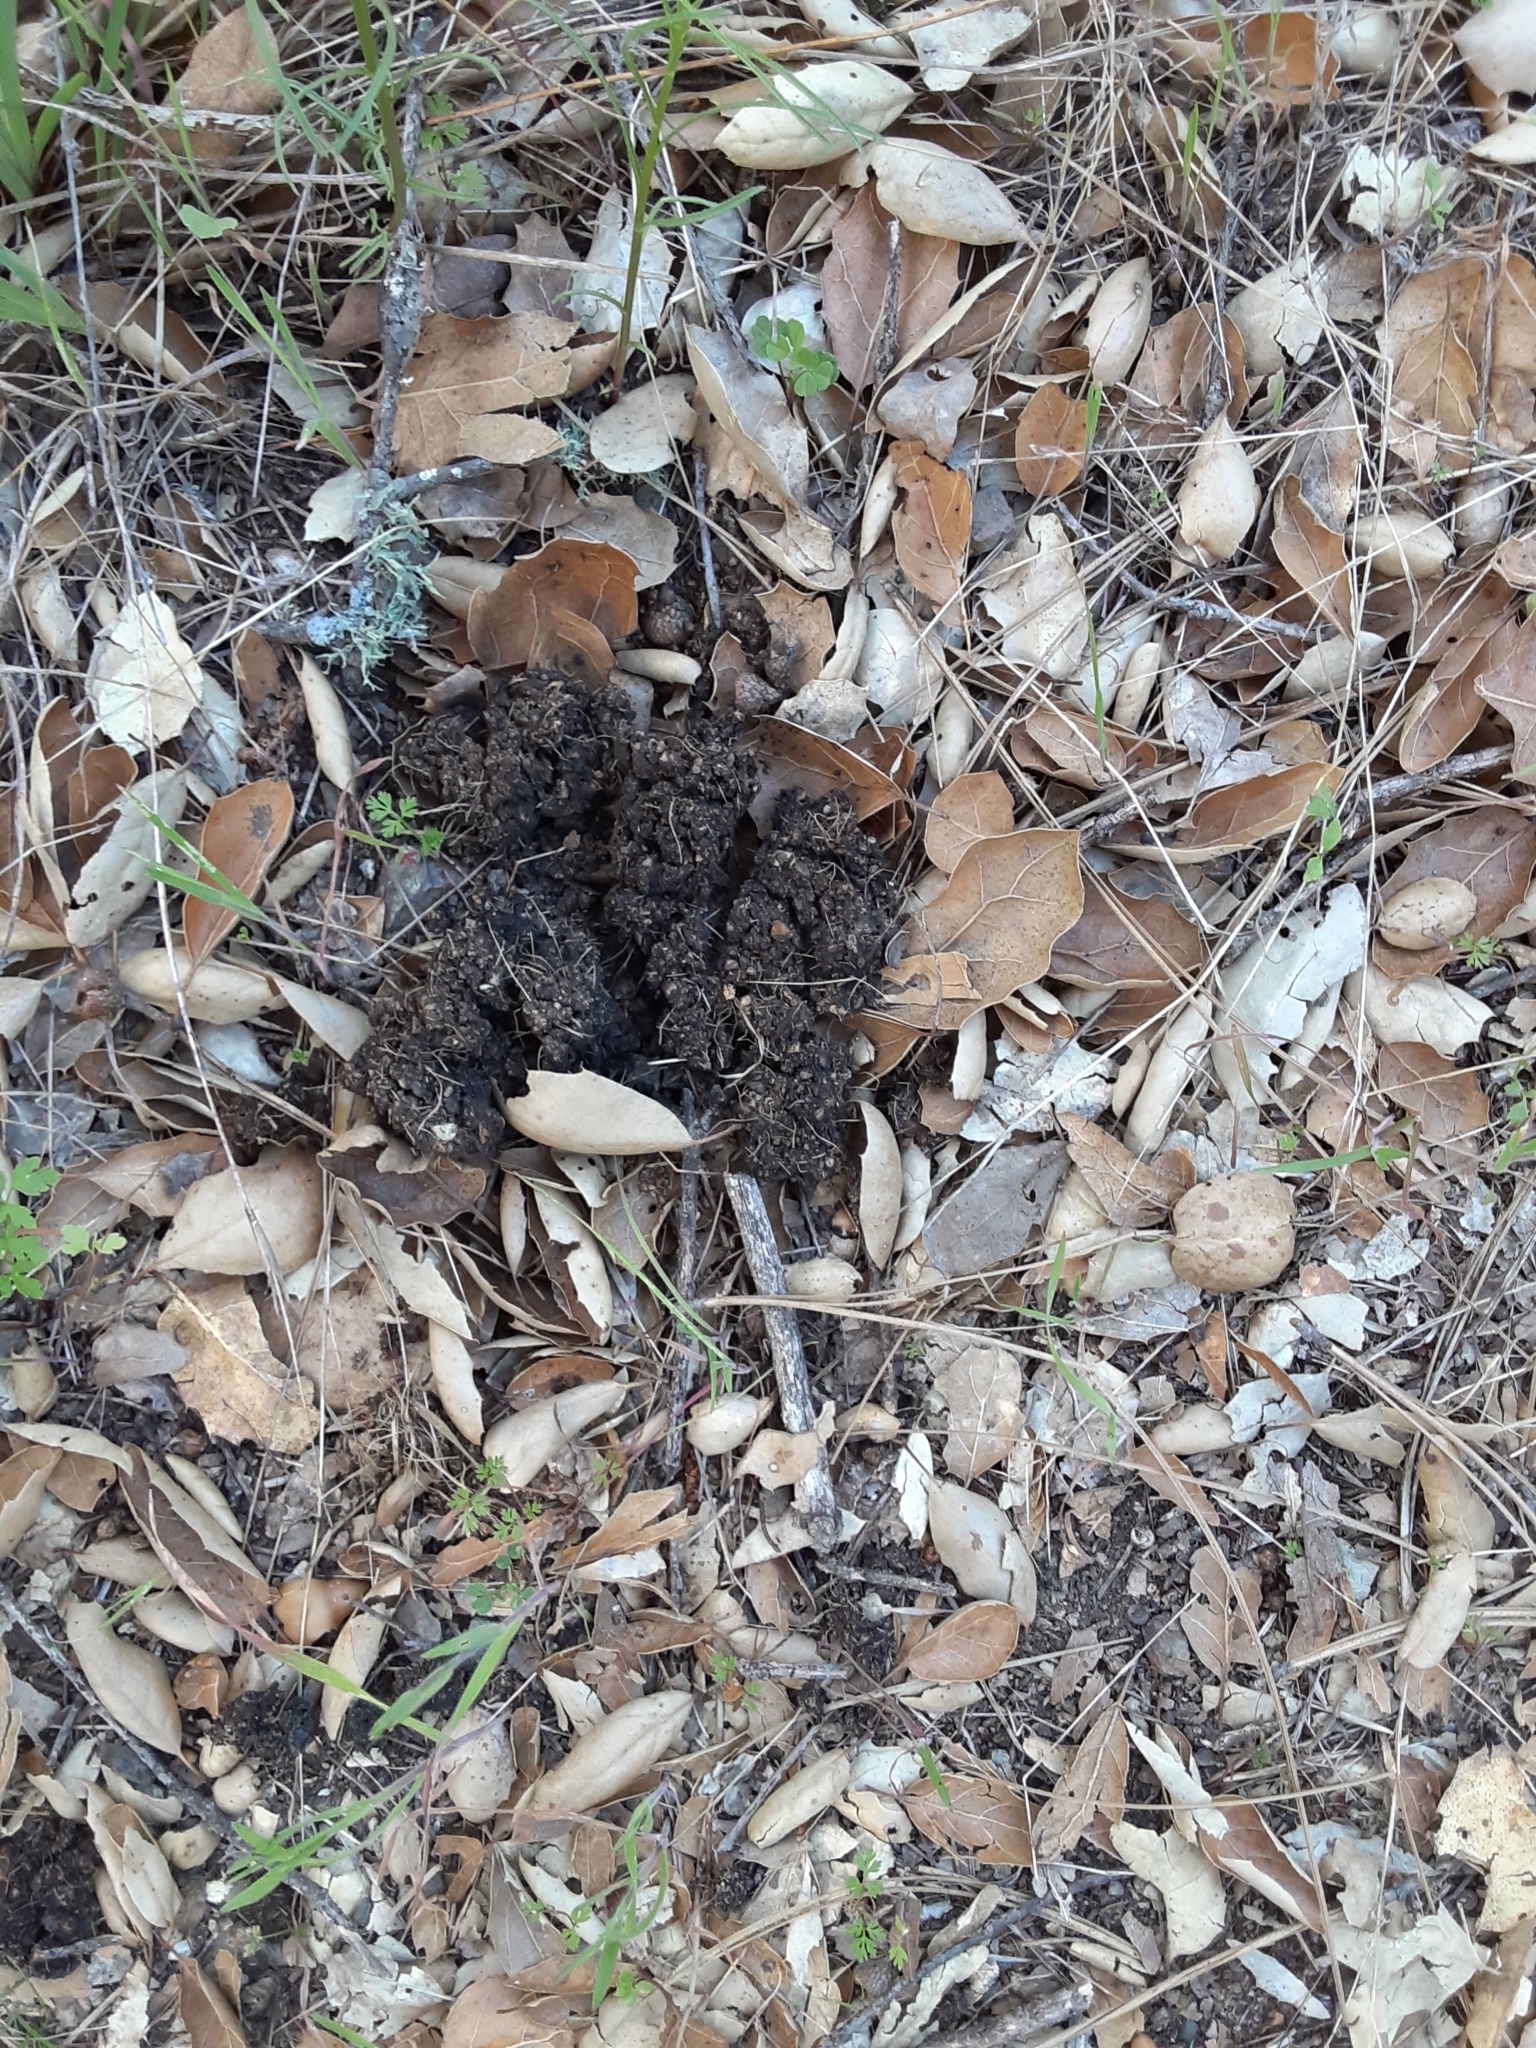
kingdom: Animalia
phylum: Chordata
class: Mammalia
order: Carnivora
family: Ursidae
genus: Ursus
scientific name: Ursus americanus
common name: American black bear
